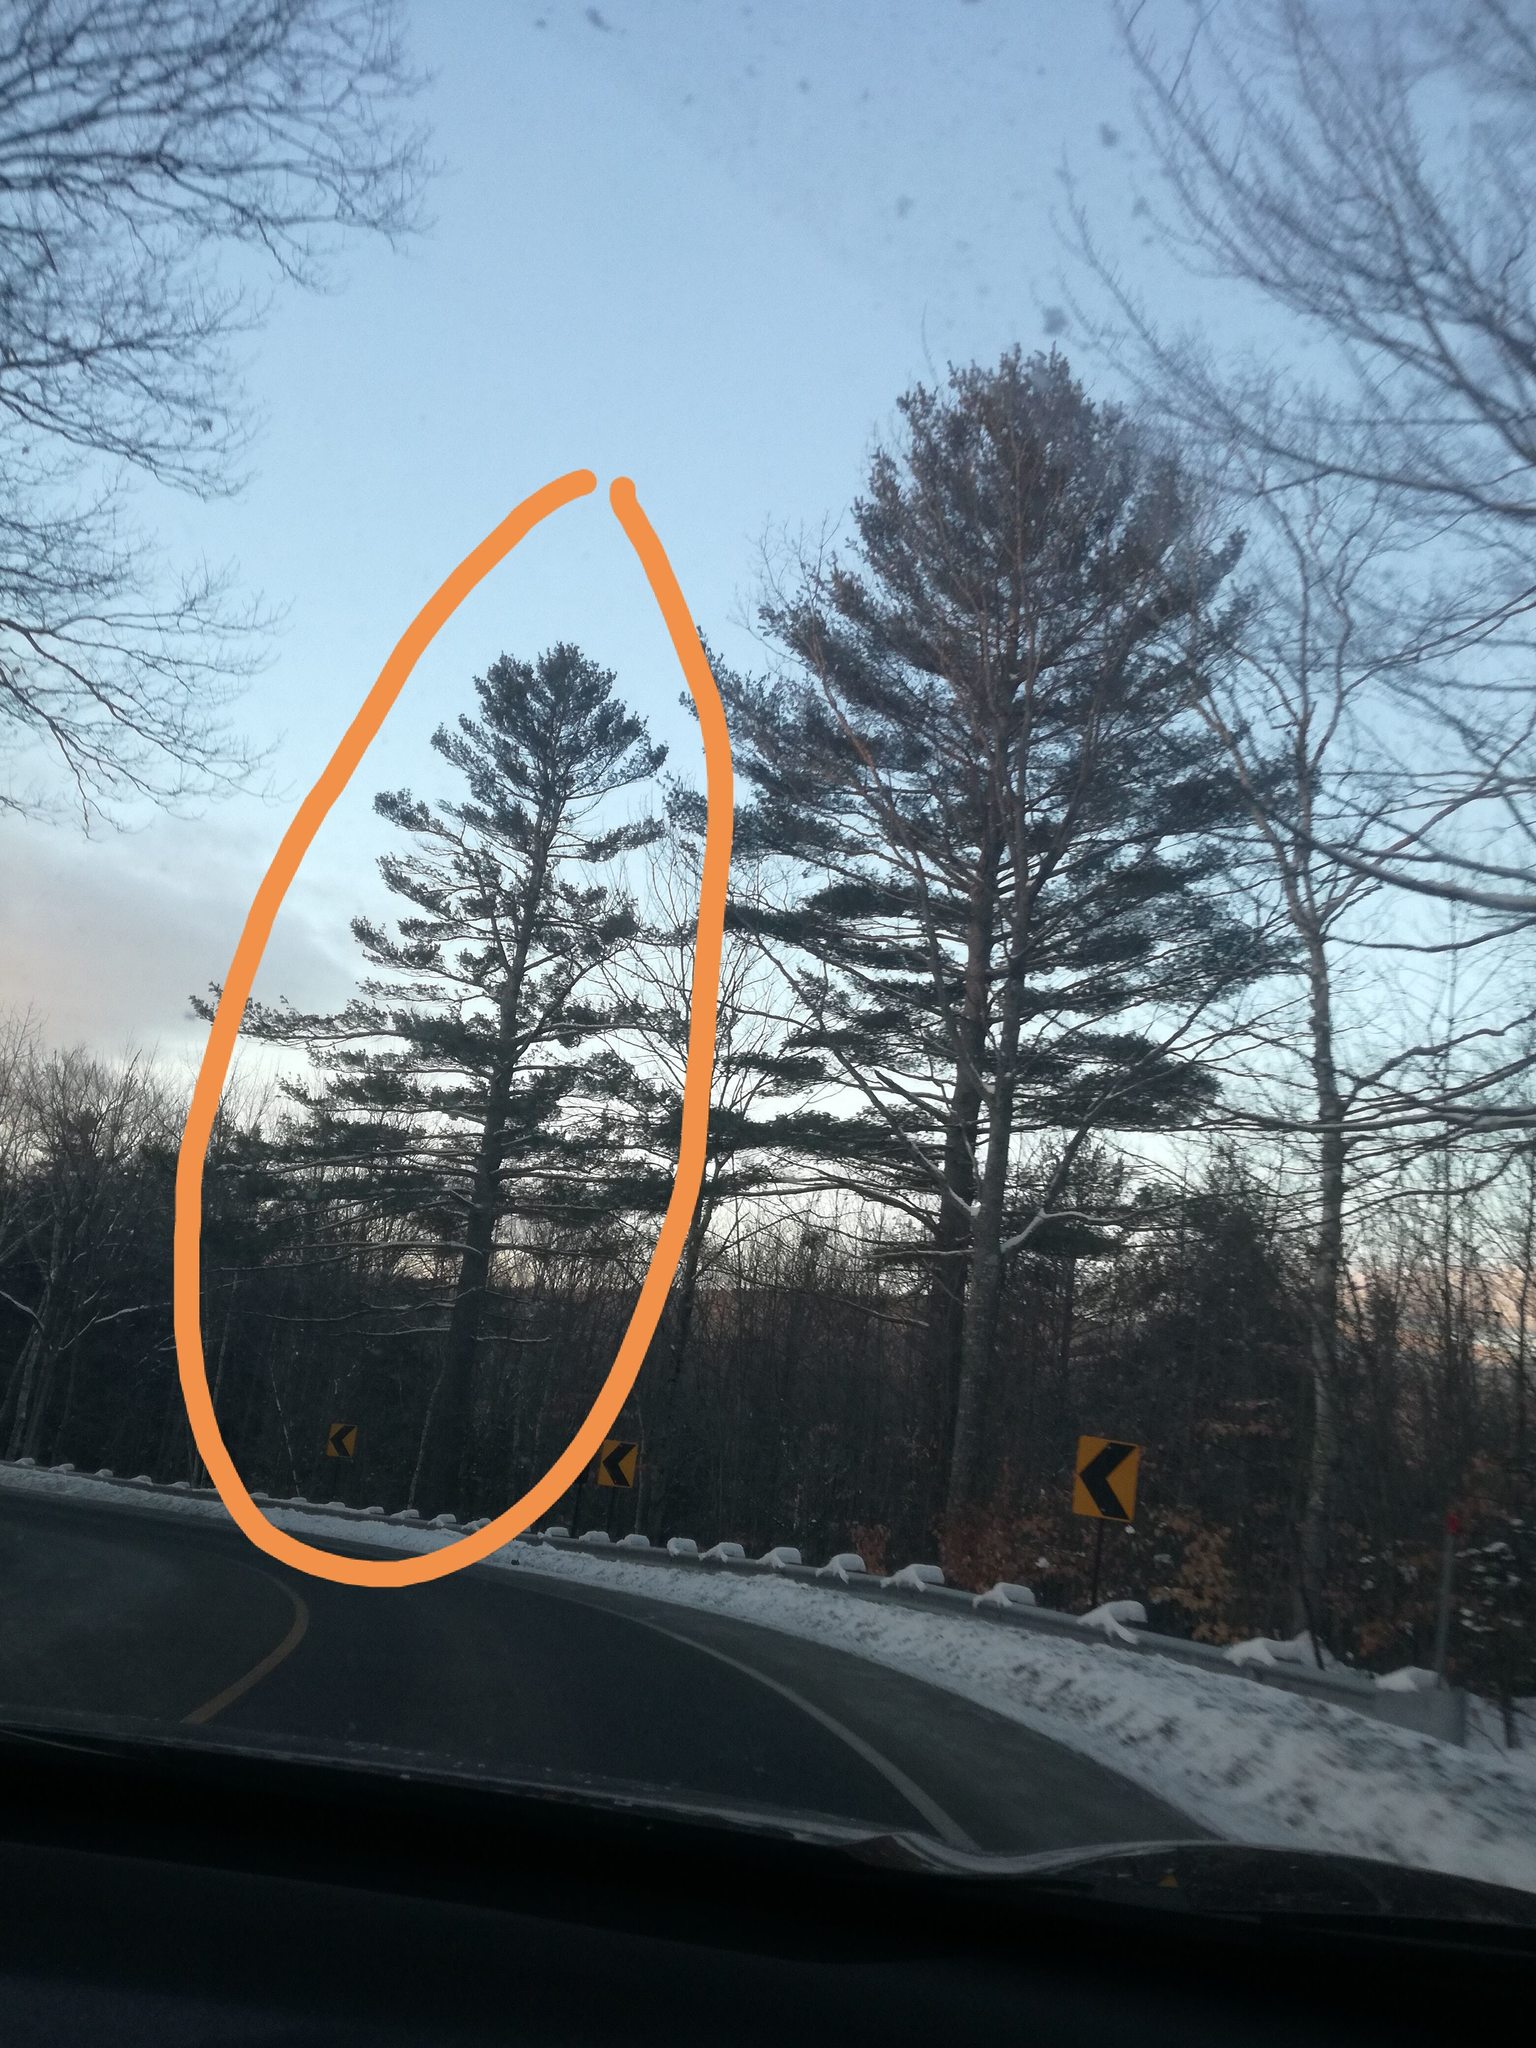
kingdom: Plantae
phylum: Tracheophyta
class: Pinopsida
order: Pinales
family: Pinaceae
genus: Pinus
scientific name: Pinus strobus
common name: Weymouth pine
